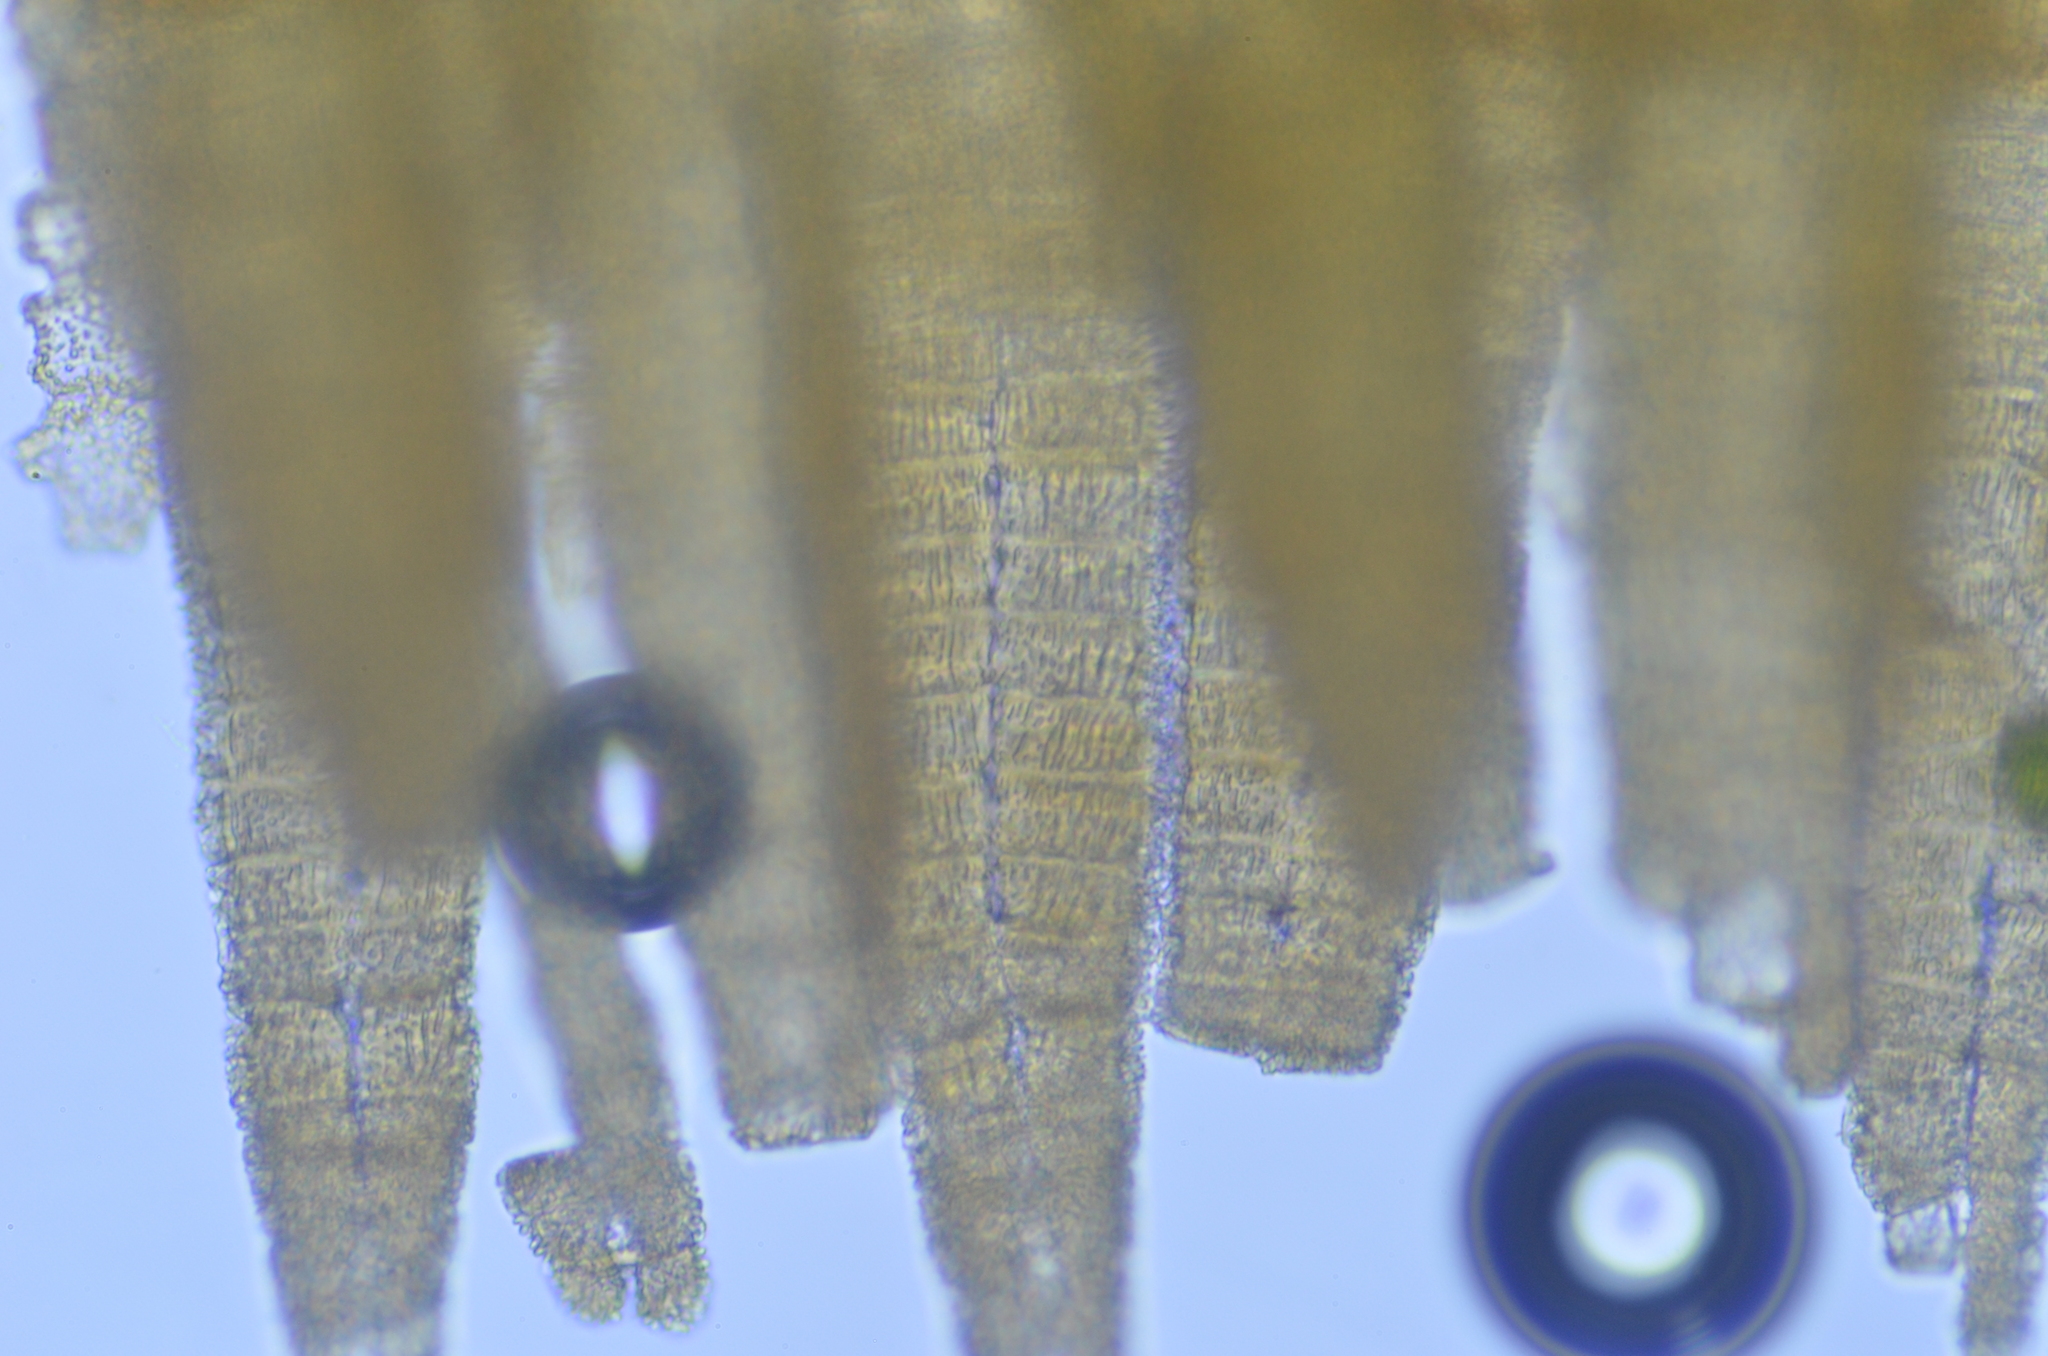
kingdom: Plantae
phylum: Bryophyta
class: Bryopsida
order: Orthotrichales
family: Orthotrichaceae
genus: Lewinskya
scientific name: Lewinskya striata
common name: Shaw's bristle-moss
